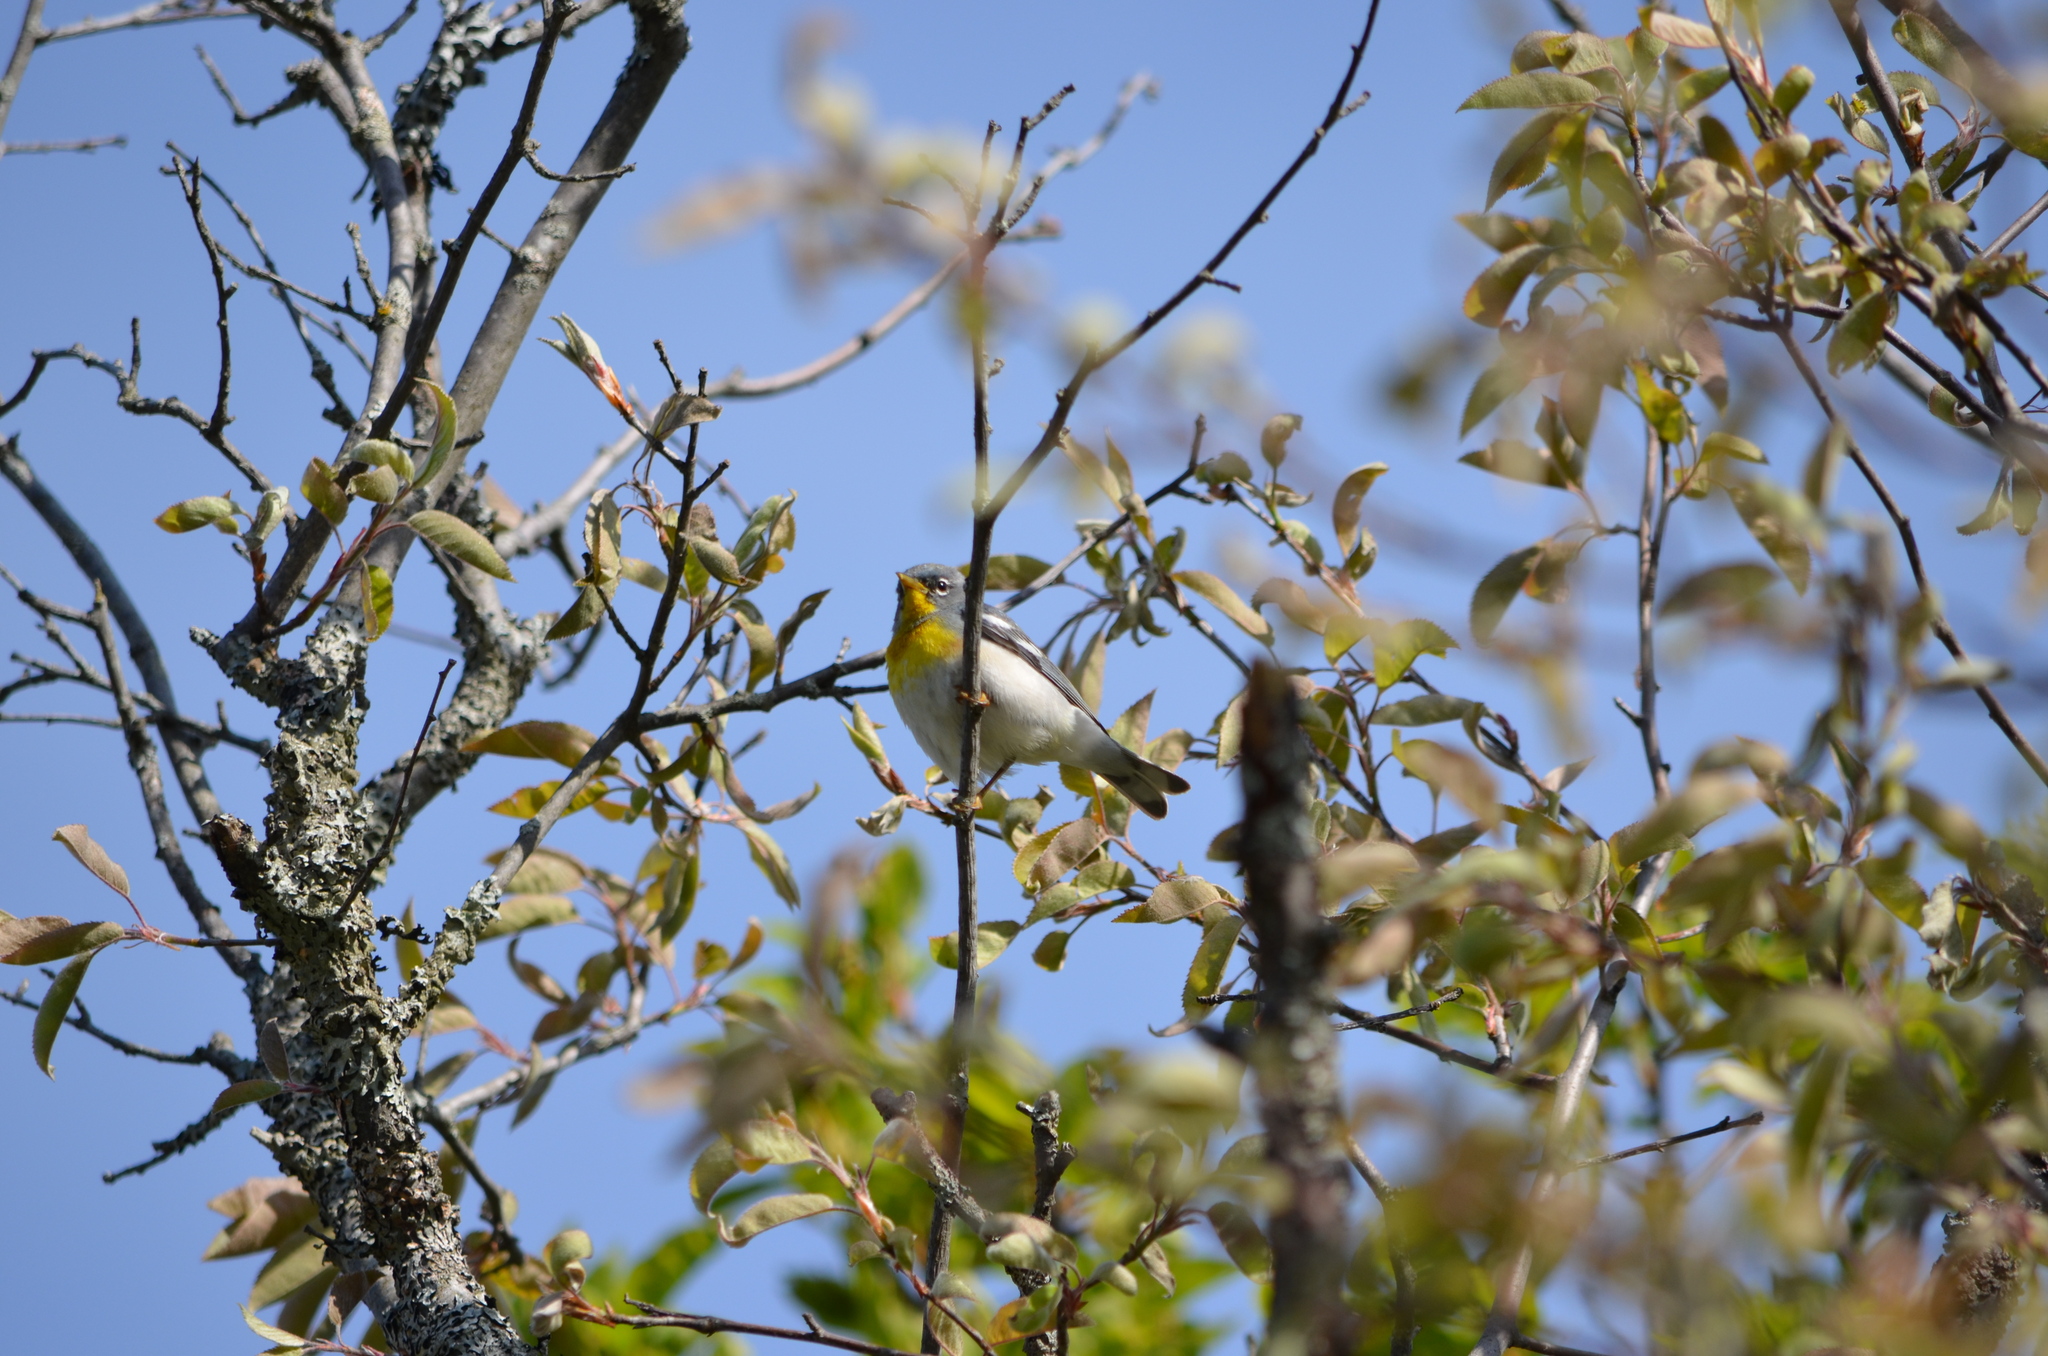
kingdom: Animalia
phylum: Chordata
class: Aves
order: Passeriformes
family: Parulidae
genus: Setophaga
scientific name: Setophaga americana
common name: Northern parula
